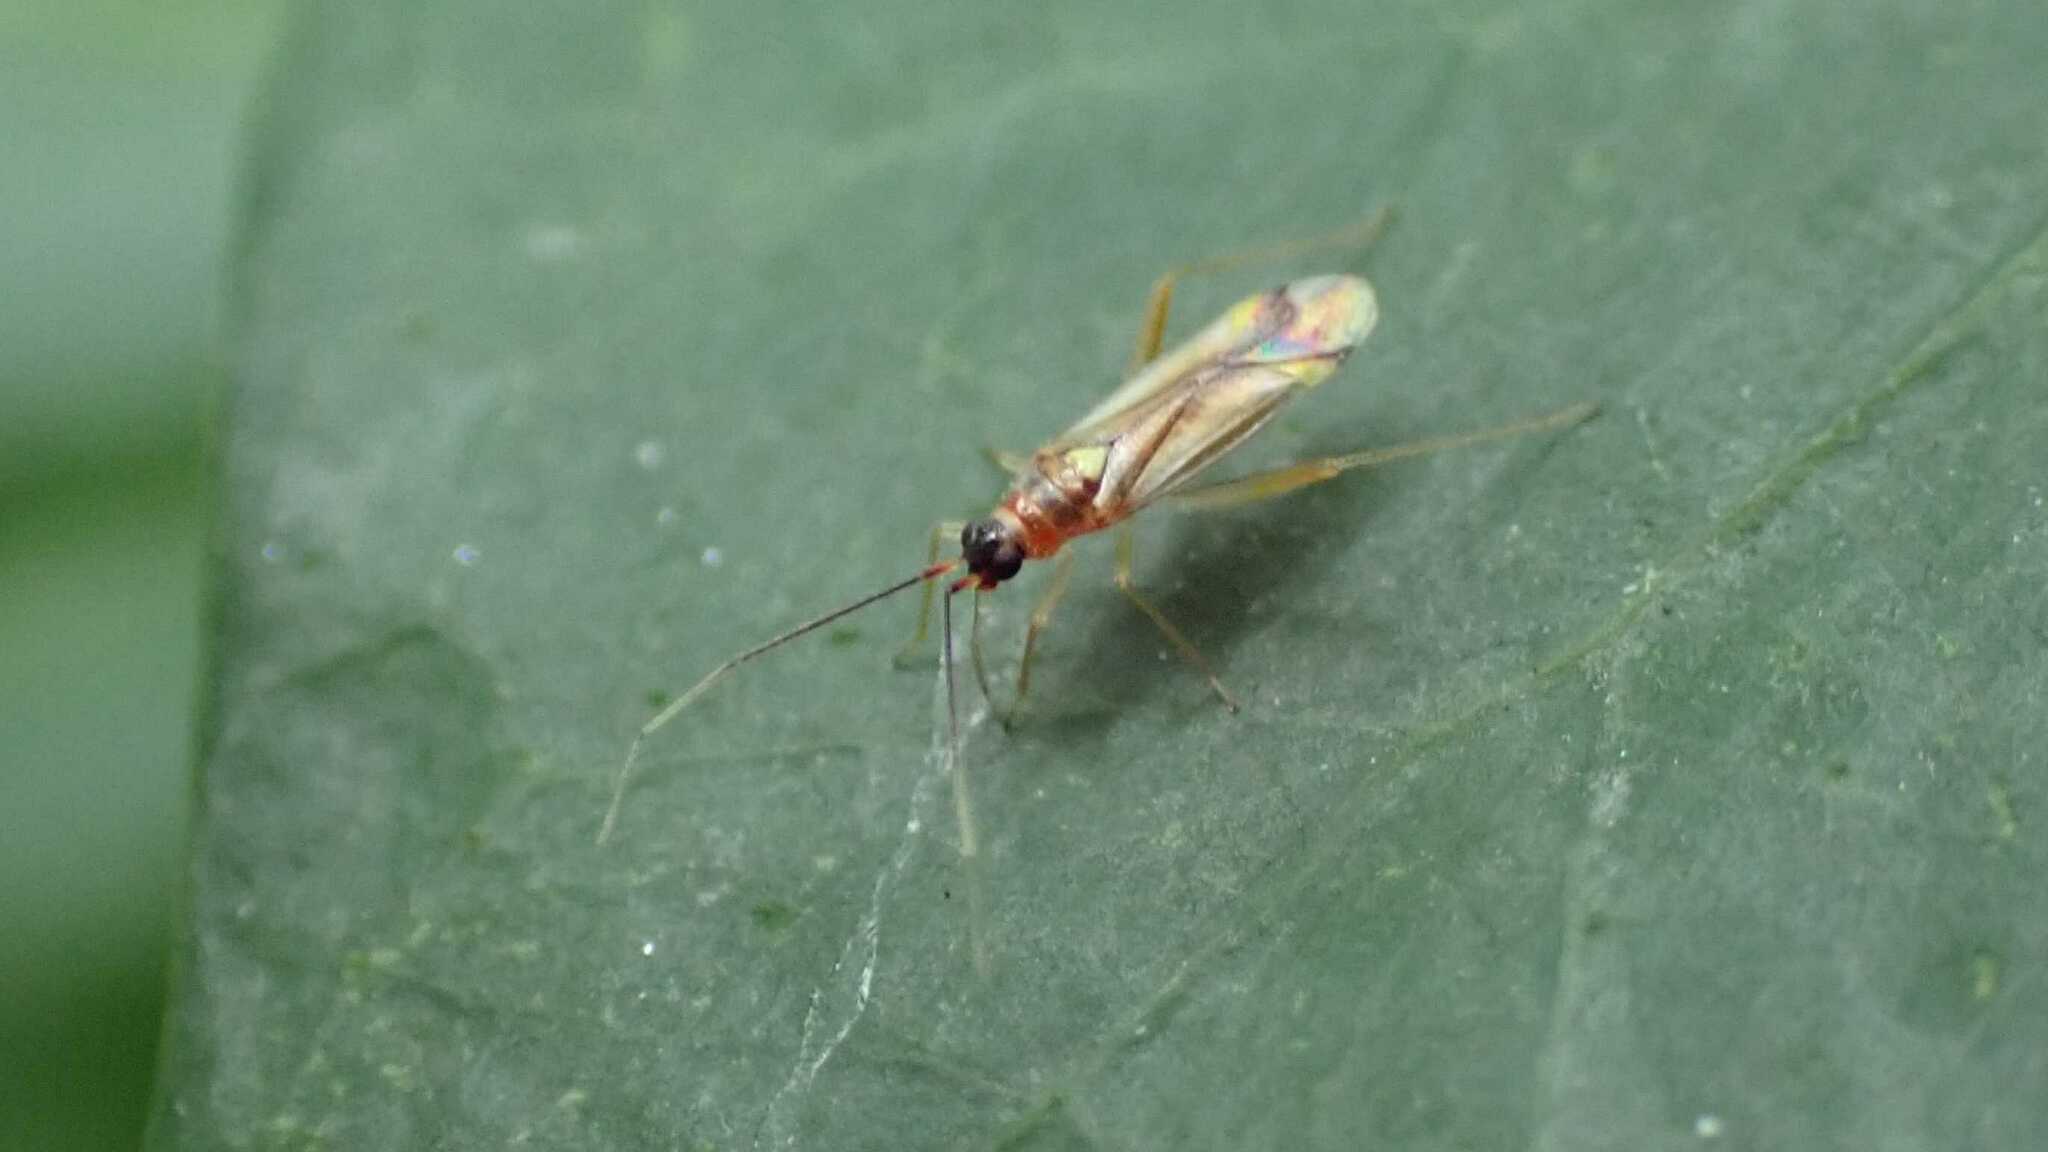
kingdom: Animalia
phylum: Arthropoda
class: Insecta
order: Hemiptera
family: Miridae
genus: Campyloneura
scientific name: Campyloneura virgula
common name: Predatory bug
